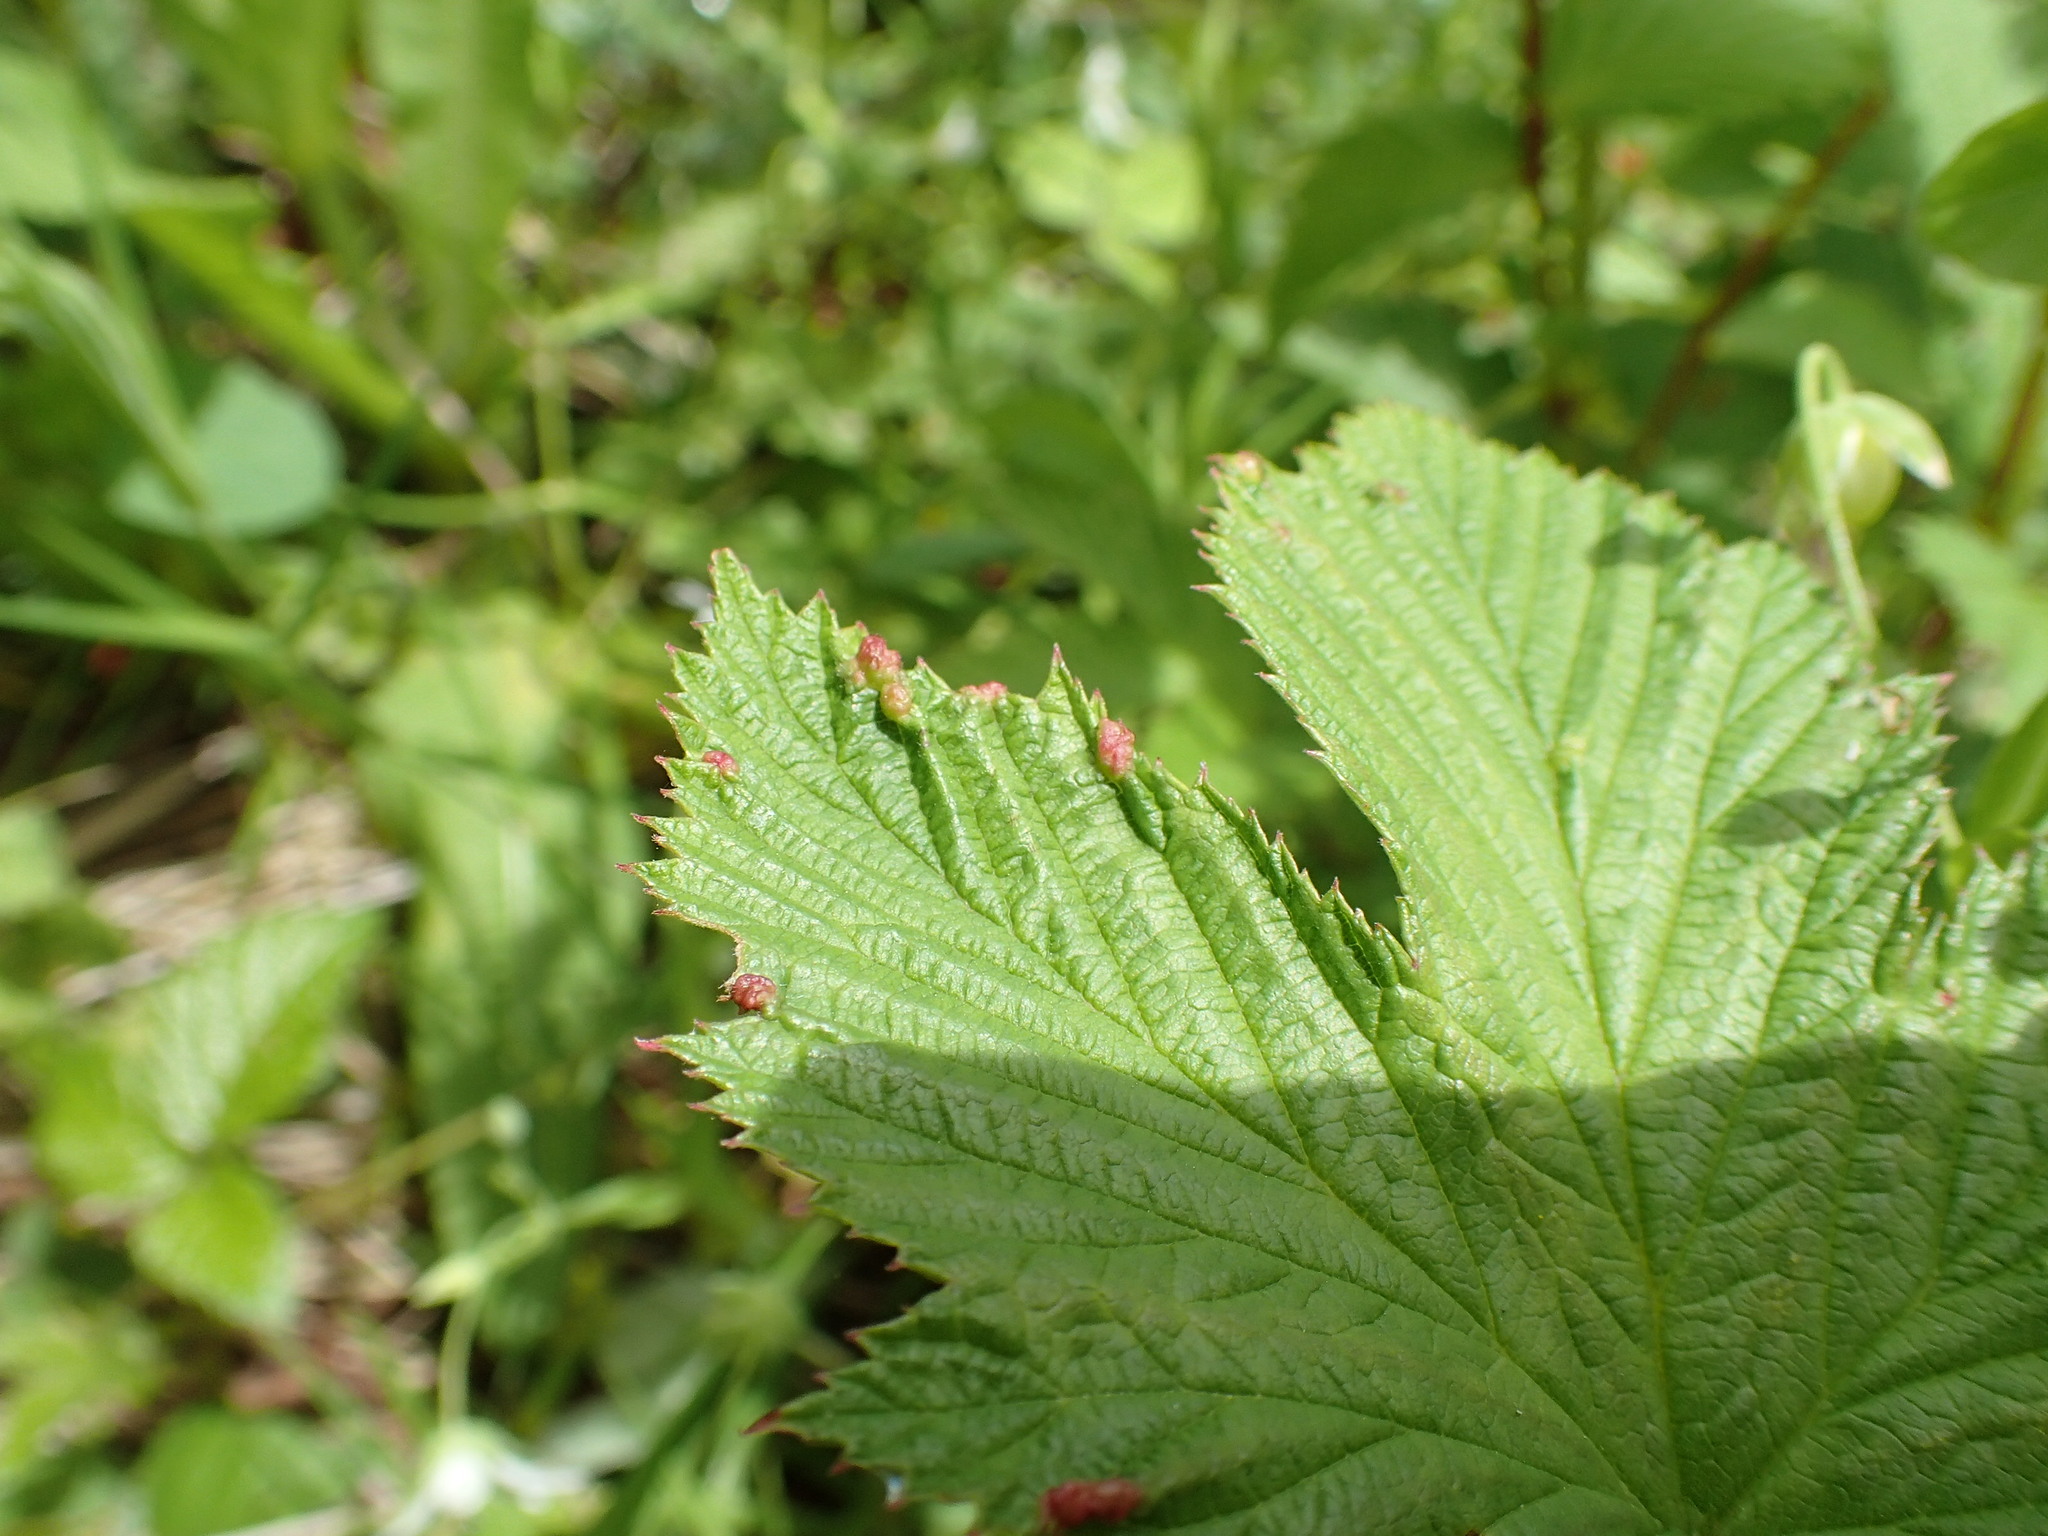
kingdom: Animalia
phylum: Arthropoda
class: Insecta
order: Diptera
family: Cecidomyiidae
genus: Dasineura
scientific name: Dasineura ulmaria
